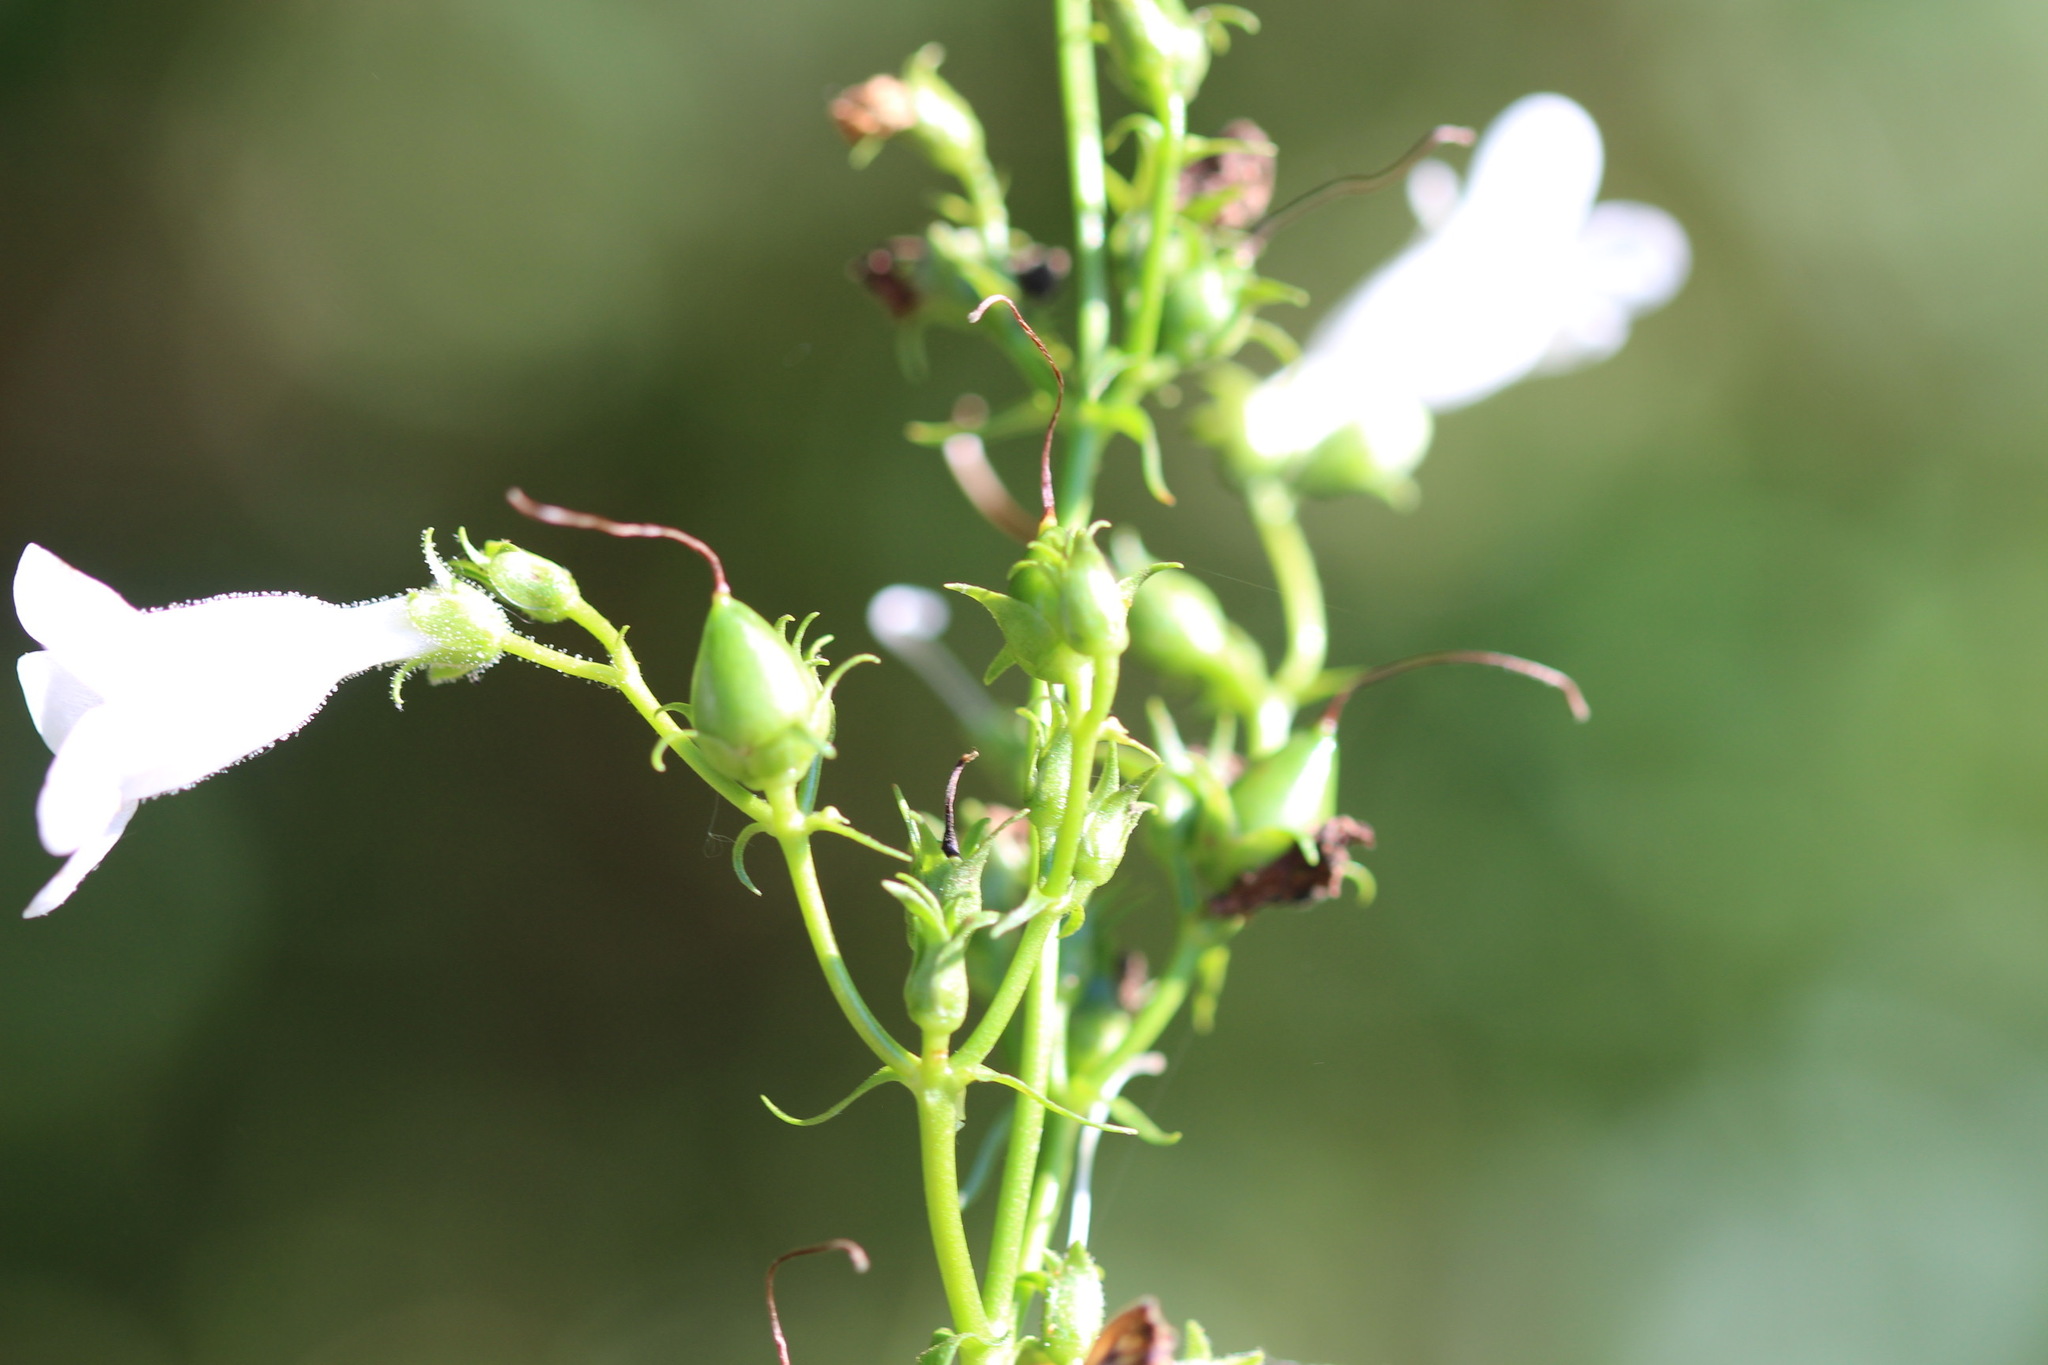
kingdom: Plantae
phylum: Tracheophyta
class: Magnoliopsida
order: Lamiales
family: Plantaginaceae
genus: Penstemon
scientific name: Penstemon digitalis
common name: Foxglove beardtongue
